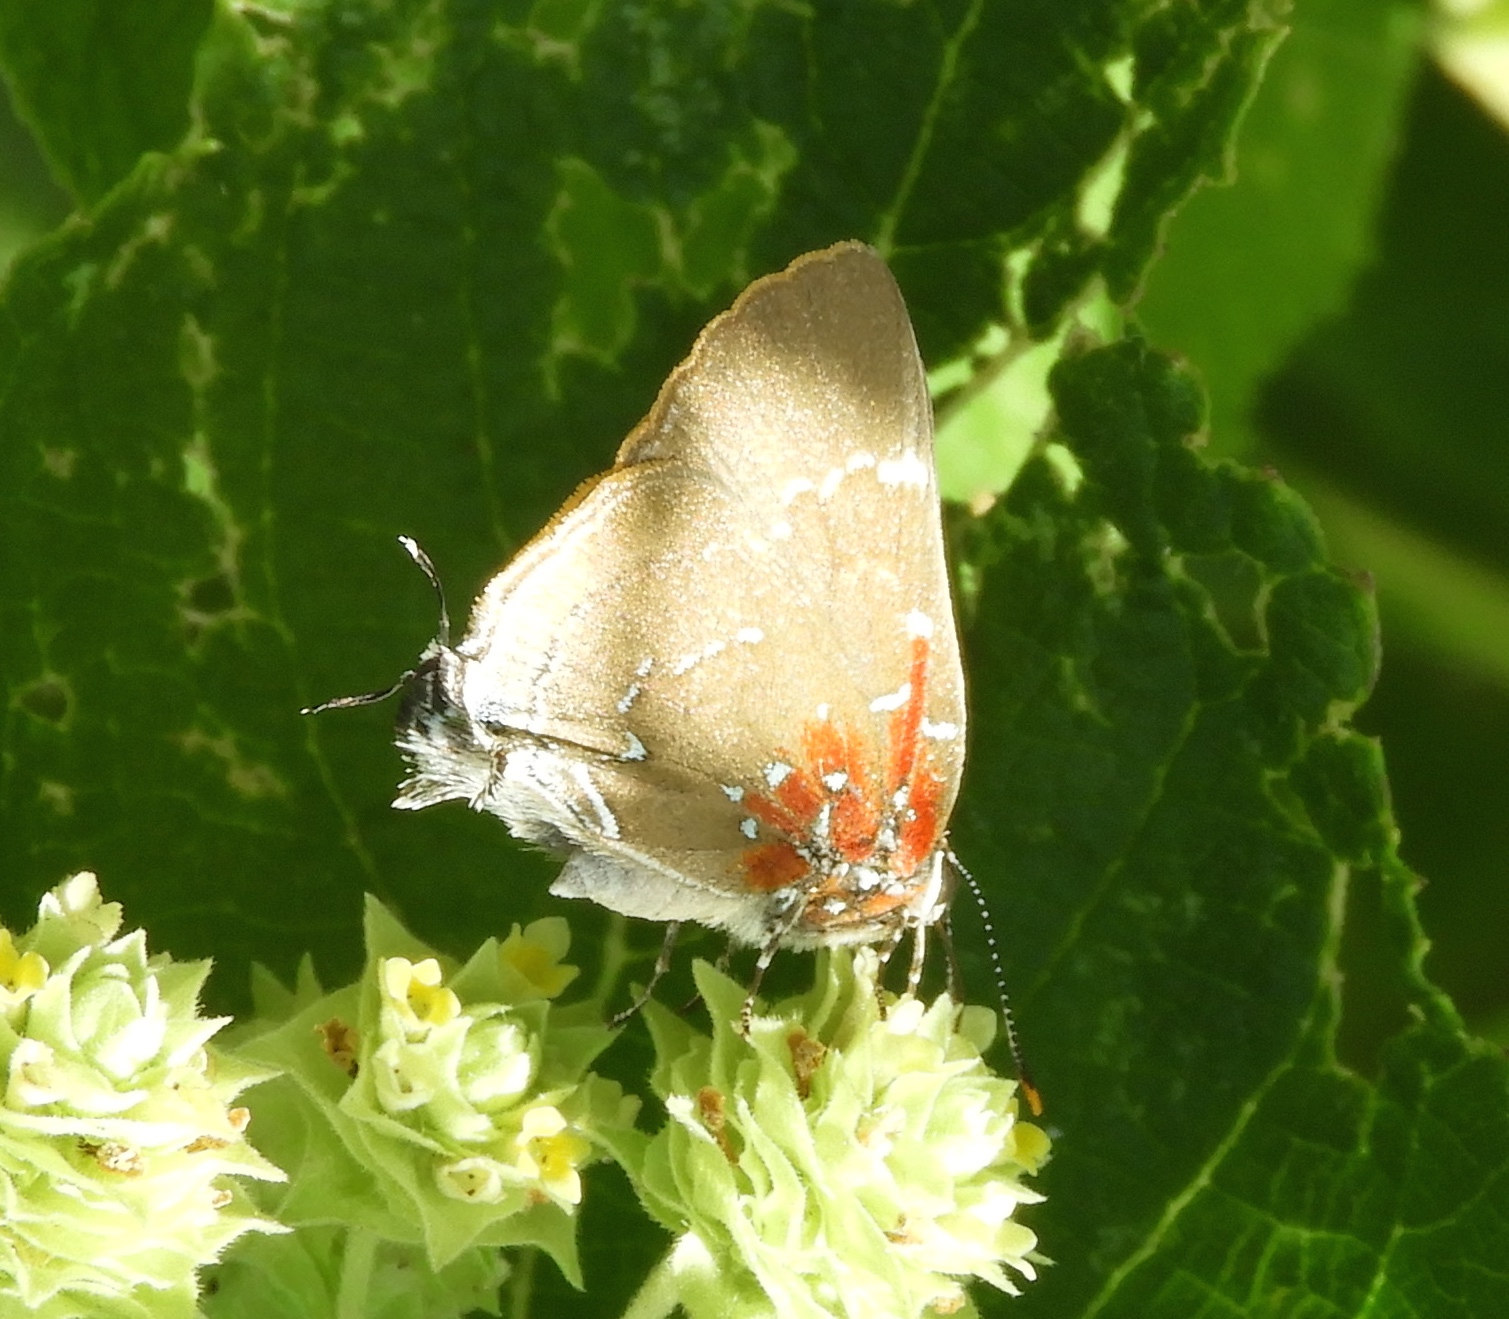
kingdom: Animalia
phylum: Arthropoda
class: Insecta
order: Lepidoptera
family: Lycaenidae
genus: Atlides
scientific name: Atlides Brangas neora
